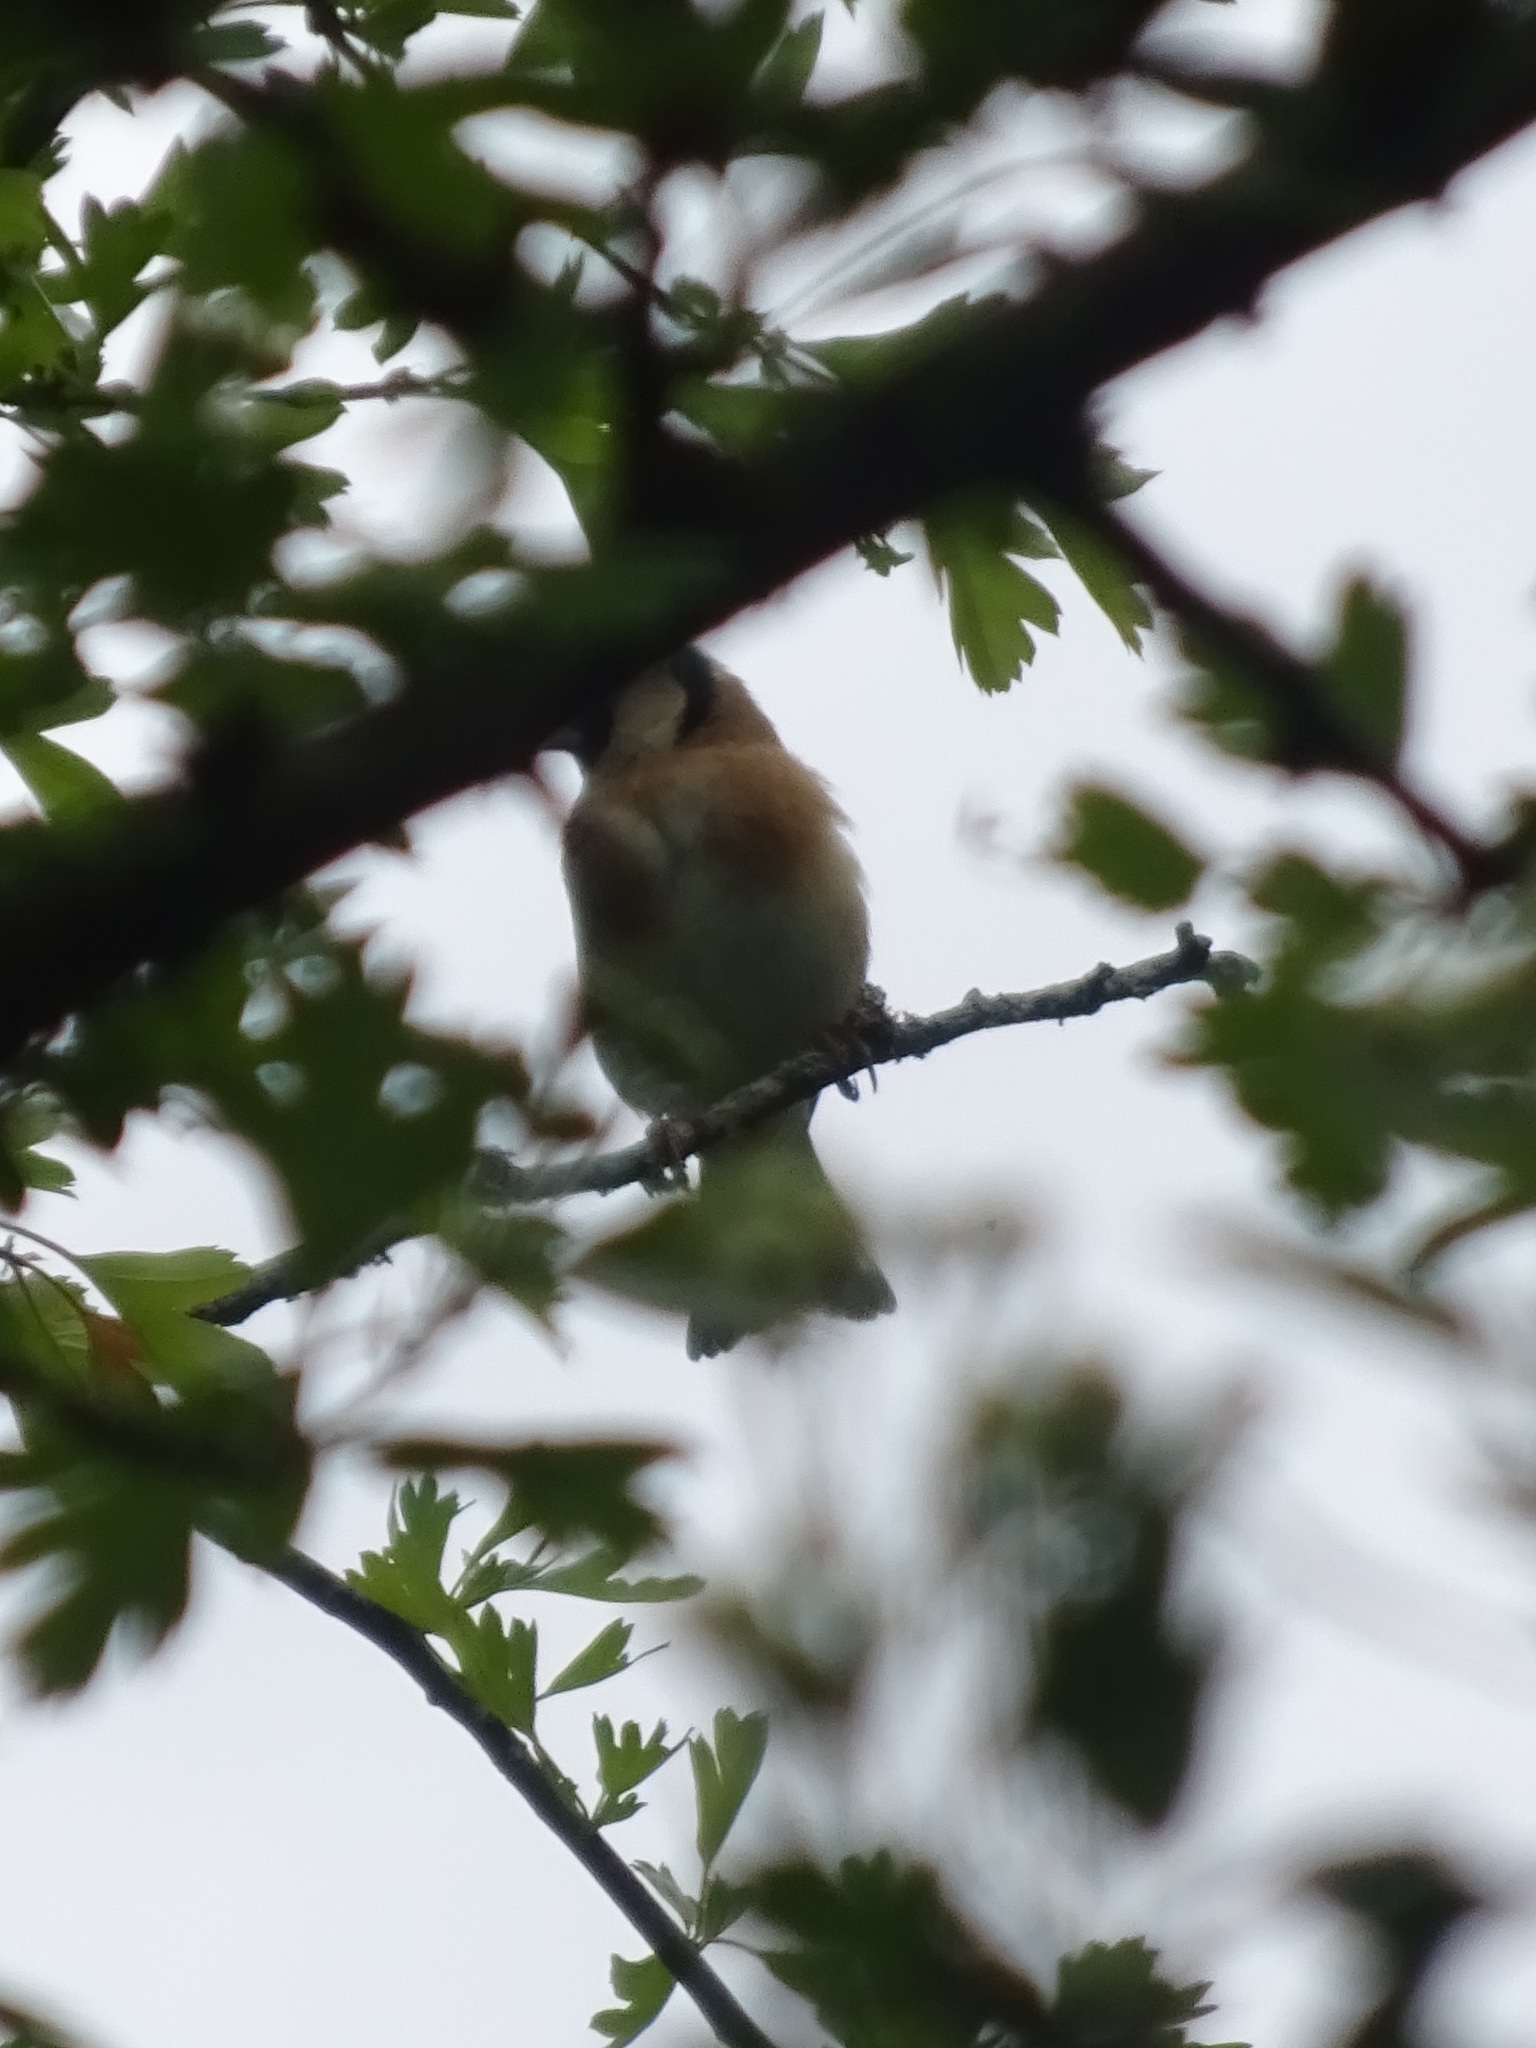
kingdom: Animalia
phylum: Chordata
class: Aves
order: Passeriformes
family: Fringillidae
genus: Carduelis
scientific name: Carduelis carduelis
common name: European goldfinch
